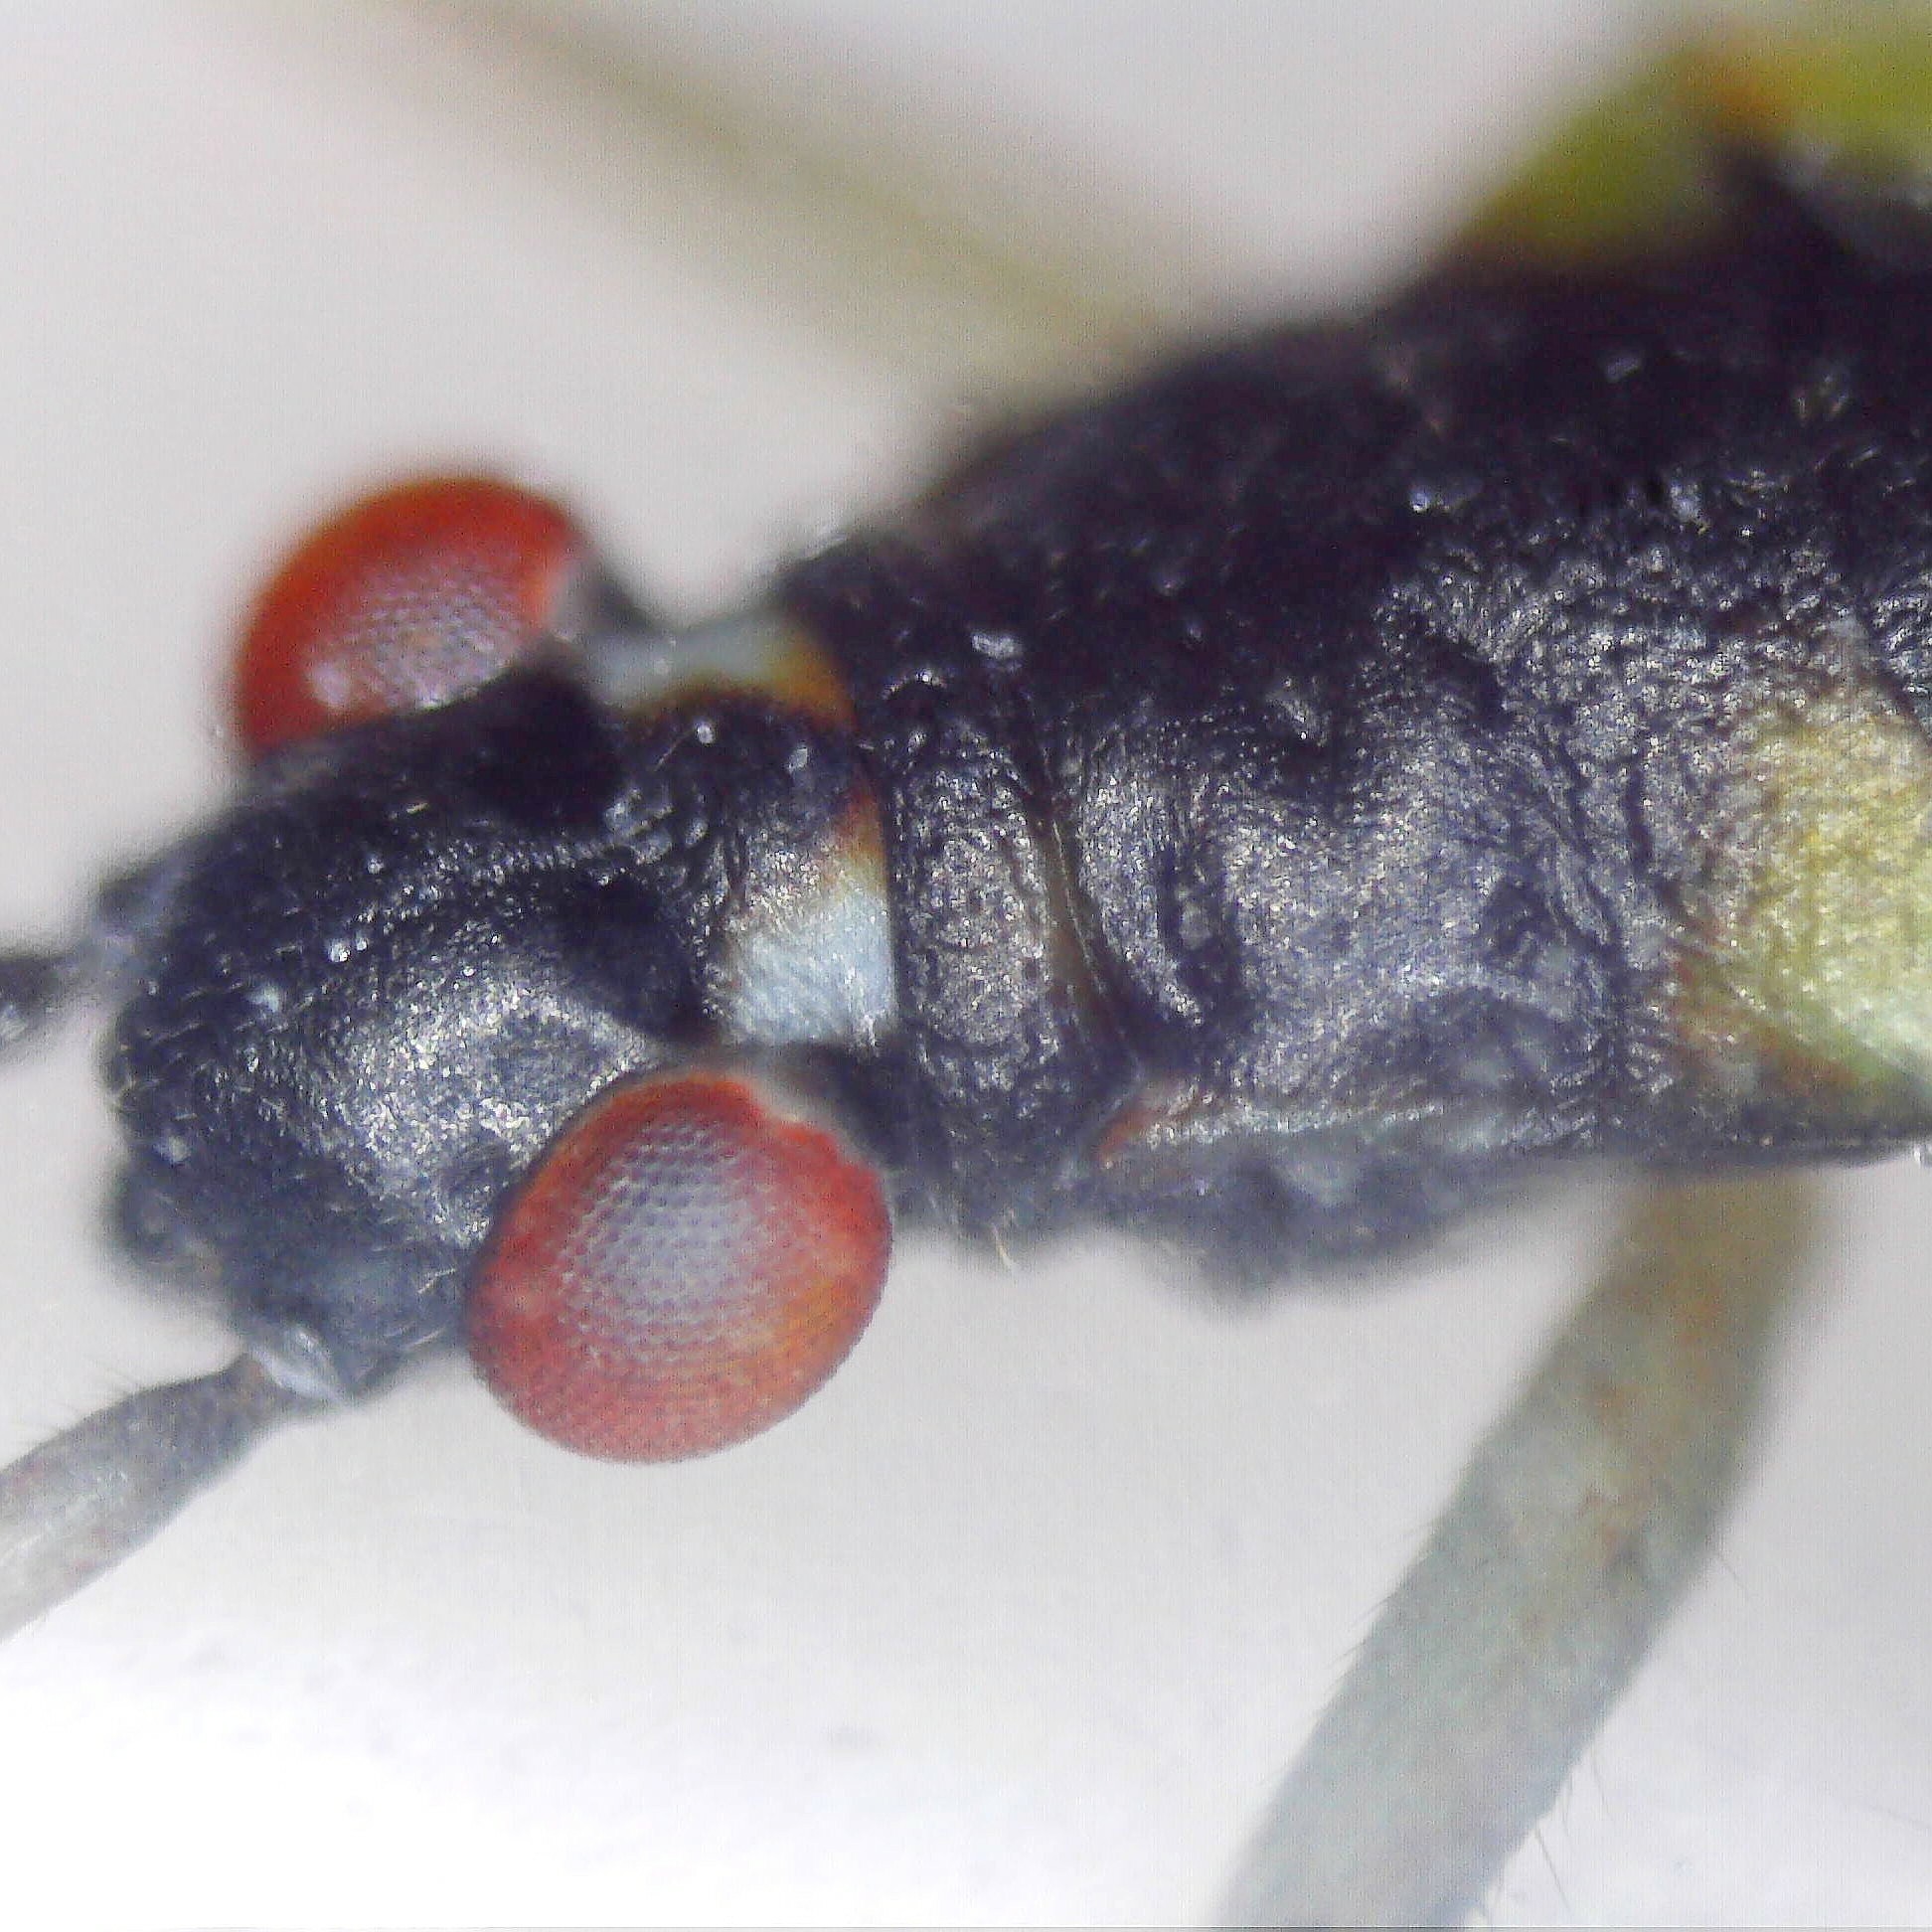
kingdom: Animalia
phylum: Arthropoda
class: Insecta
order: Hemiptera
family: Miridae
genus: Teratocoris
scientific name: Teratocoris antennatus
